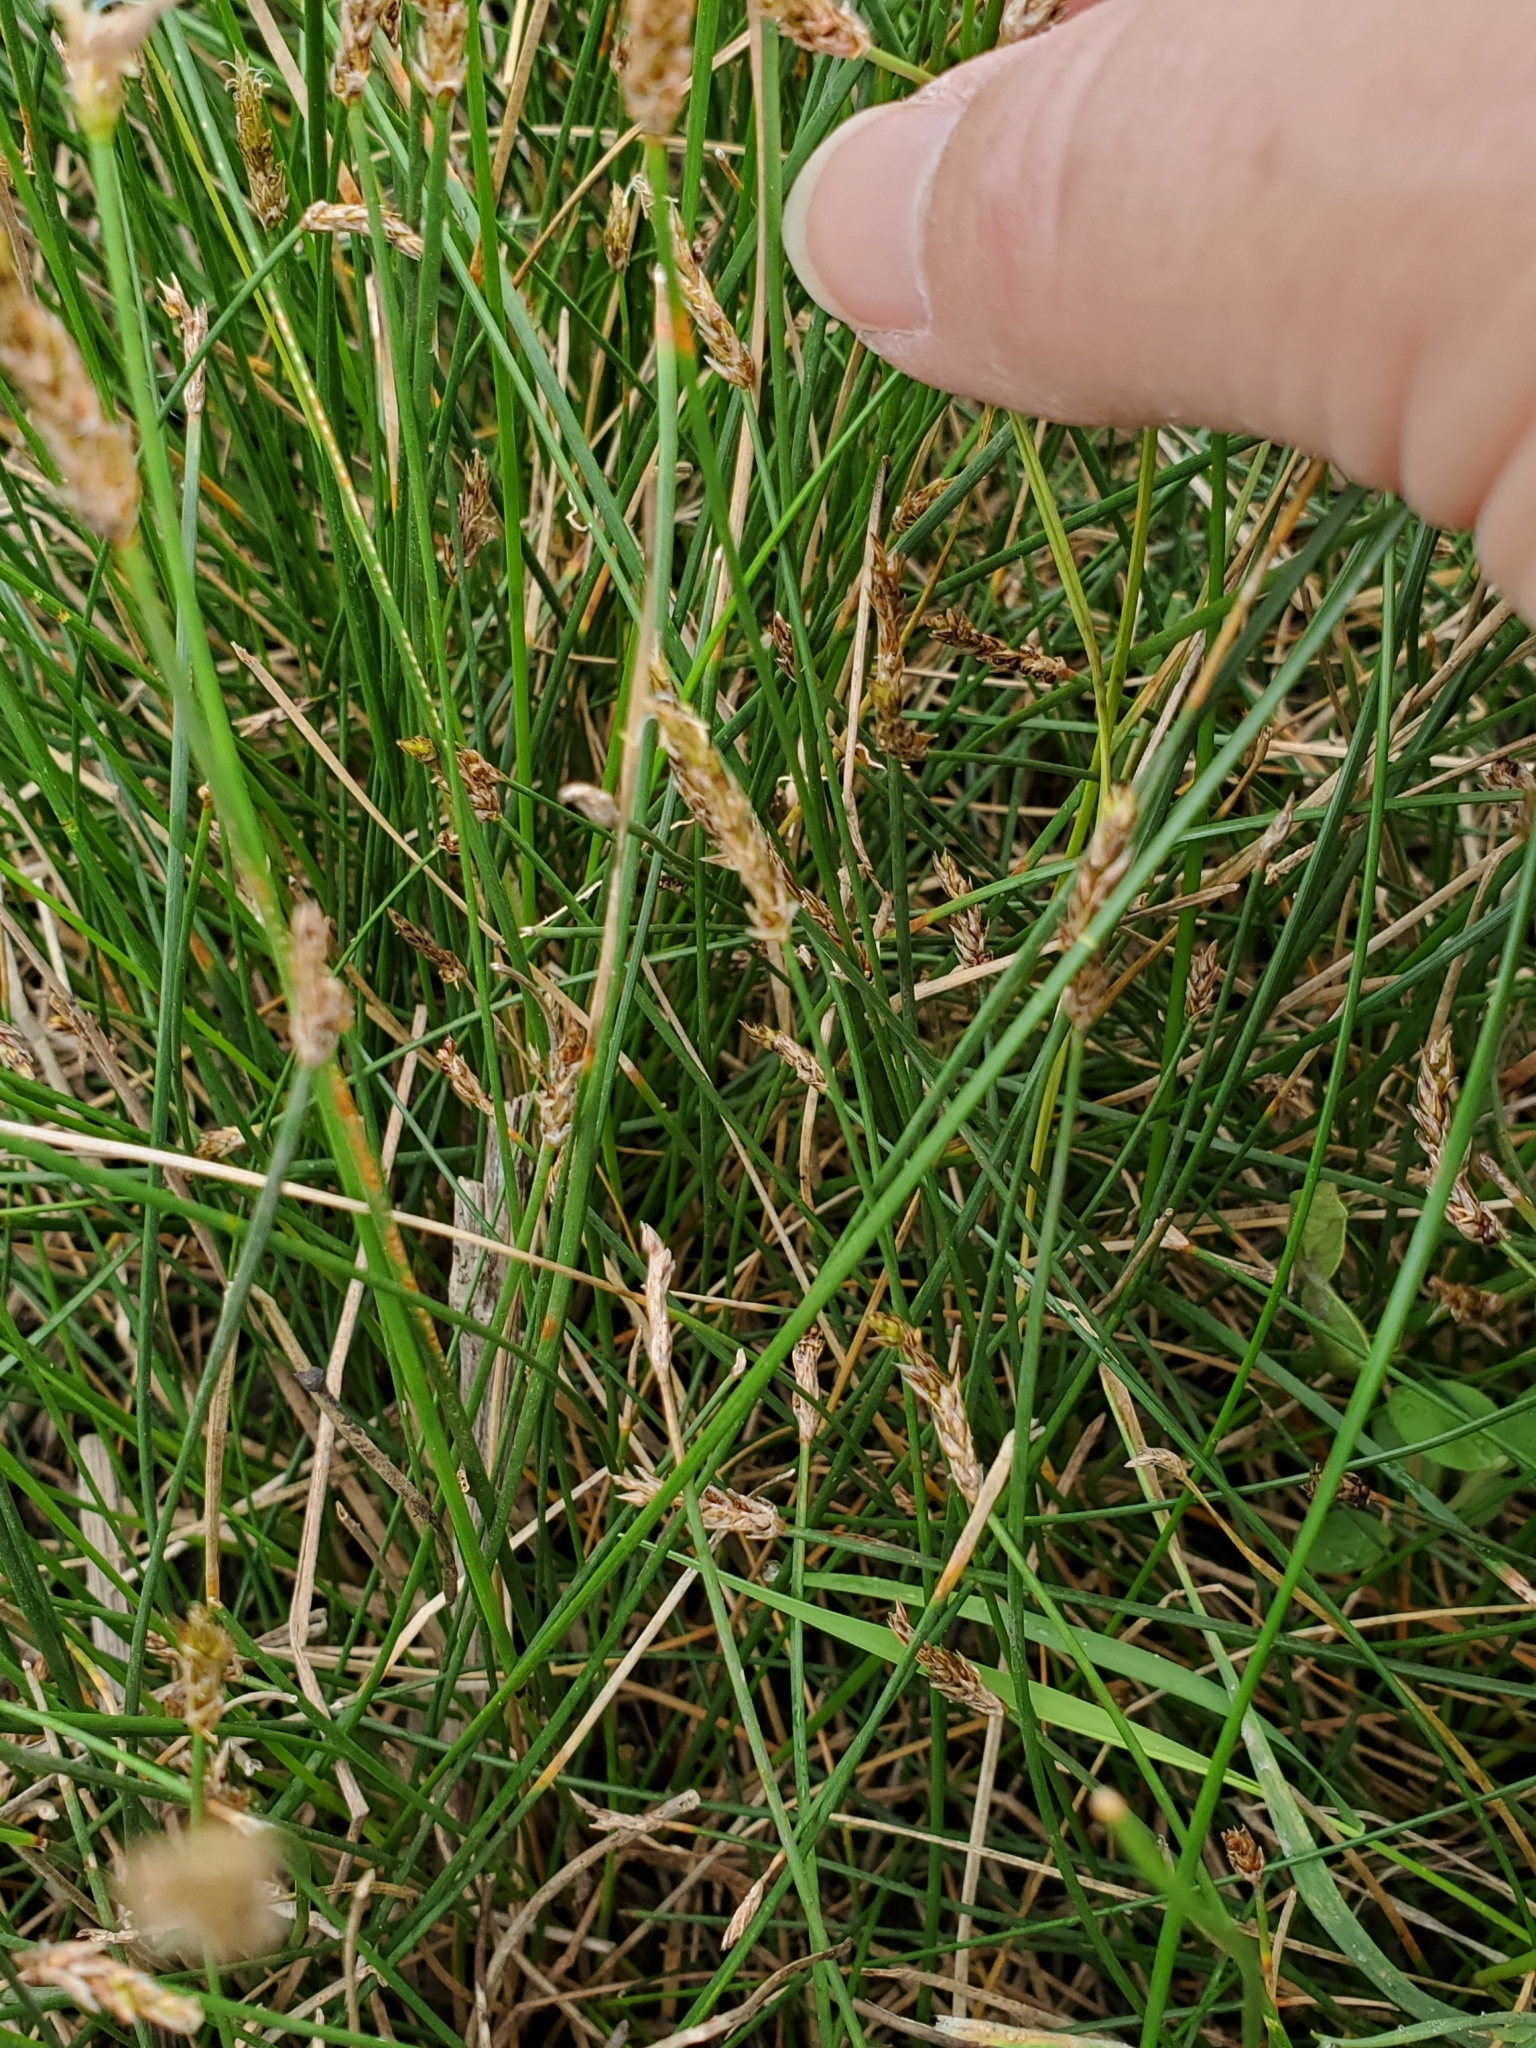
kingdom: Plantae
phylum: Tracheophyta
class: Liliopsida
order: Poales
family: Cyperaceae
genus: Eleocharis
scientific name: Eleocharis palustris
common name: Common spike-rush
